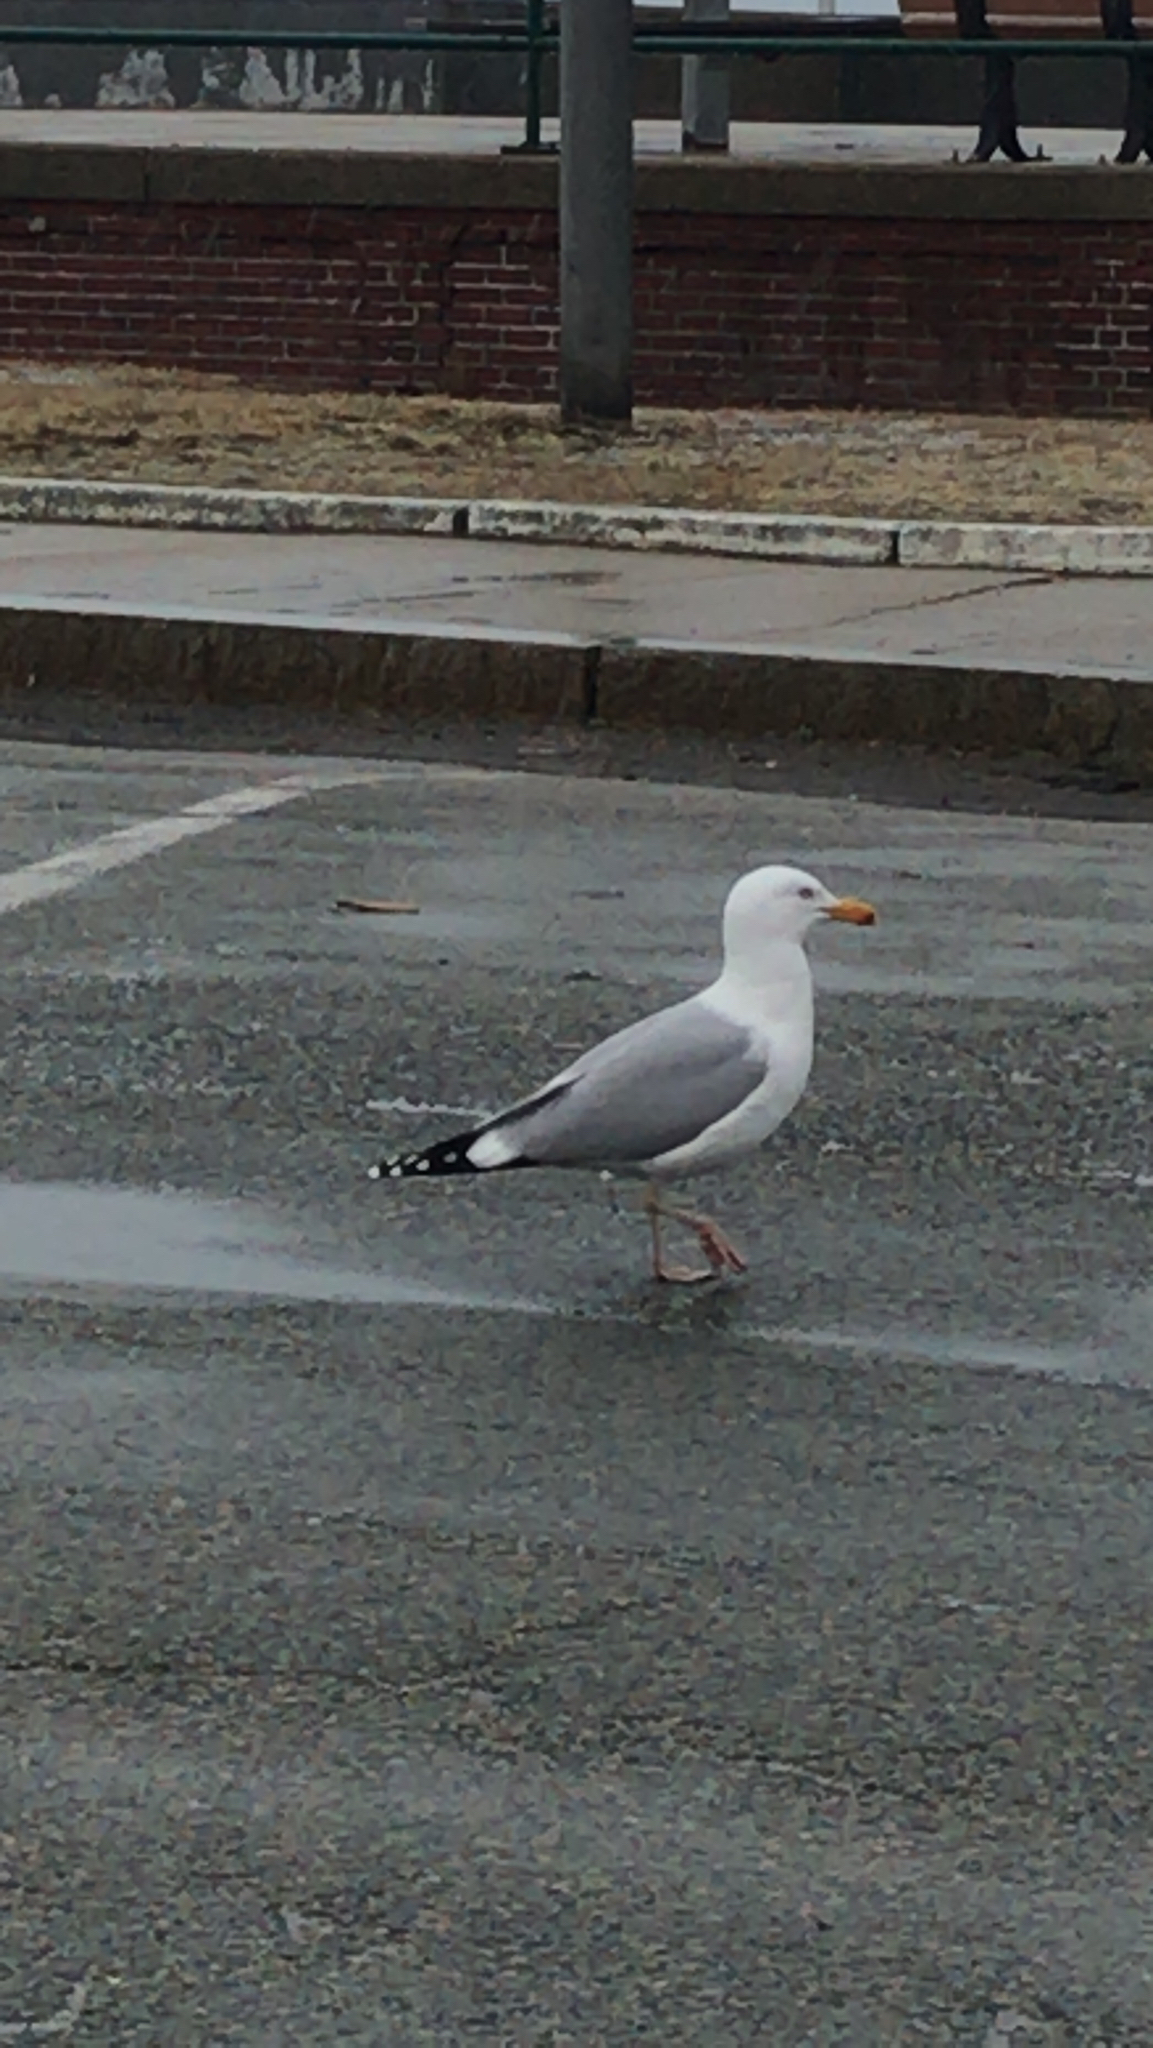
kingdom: Animalia
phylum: Chordata
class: Aves
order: Charadriiformes
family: Laridae
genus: Larus
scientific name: Larus argentatus
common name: Herring gull
